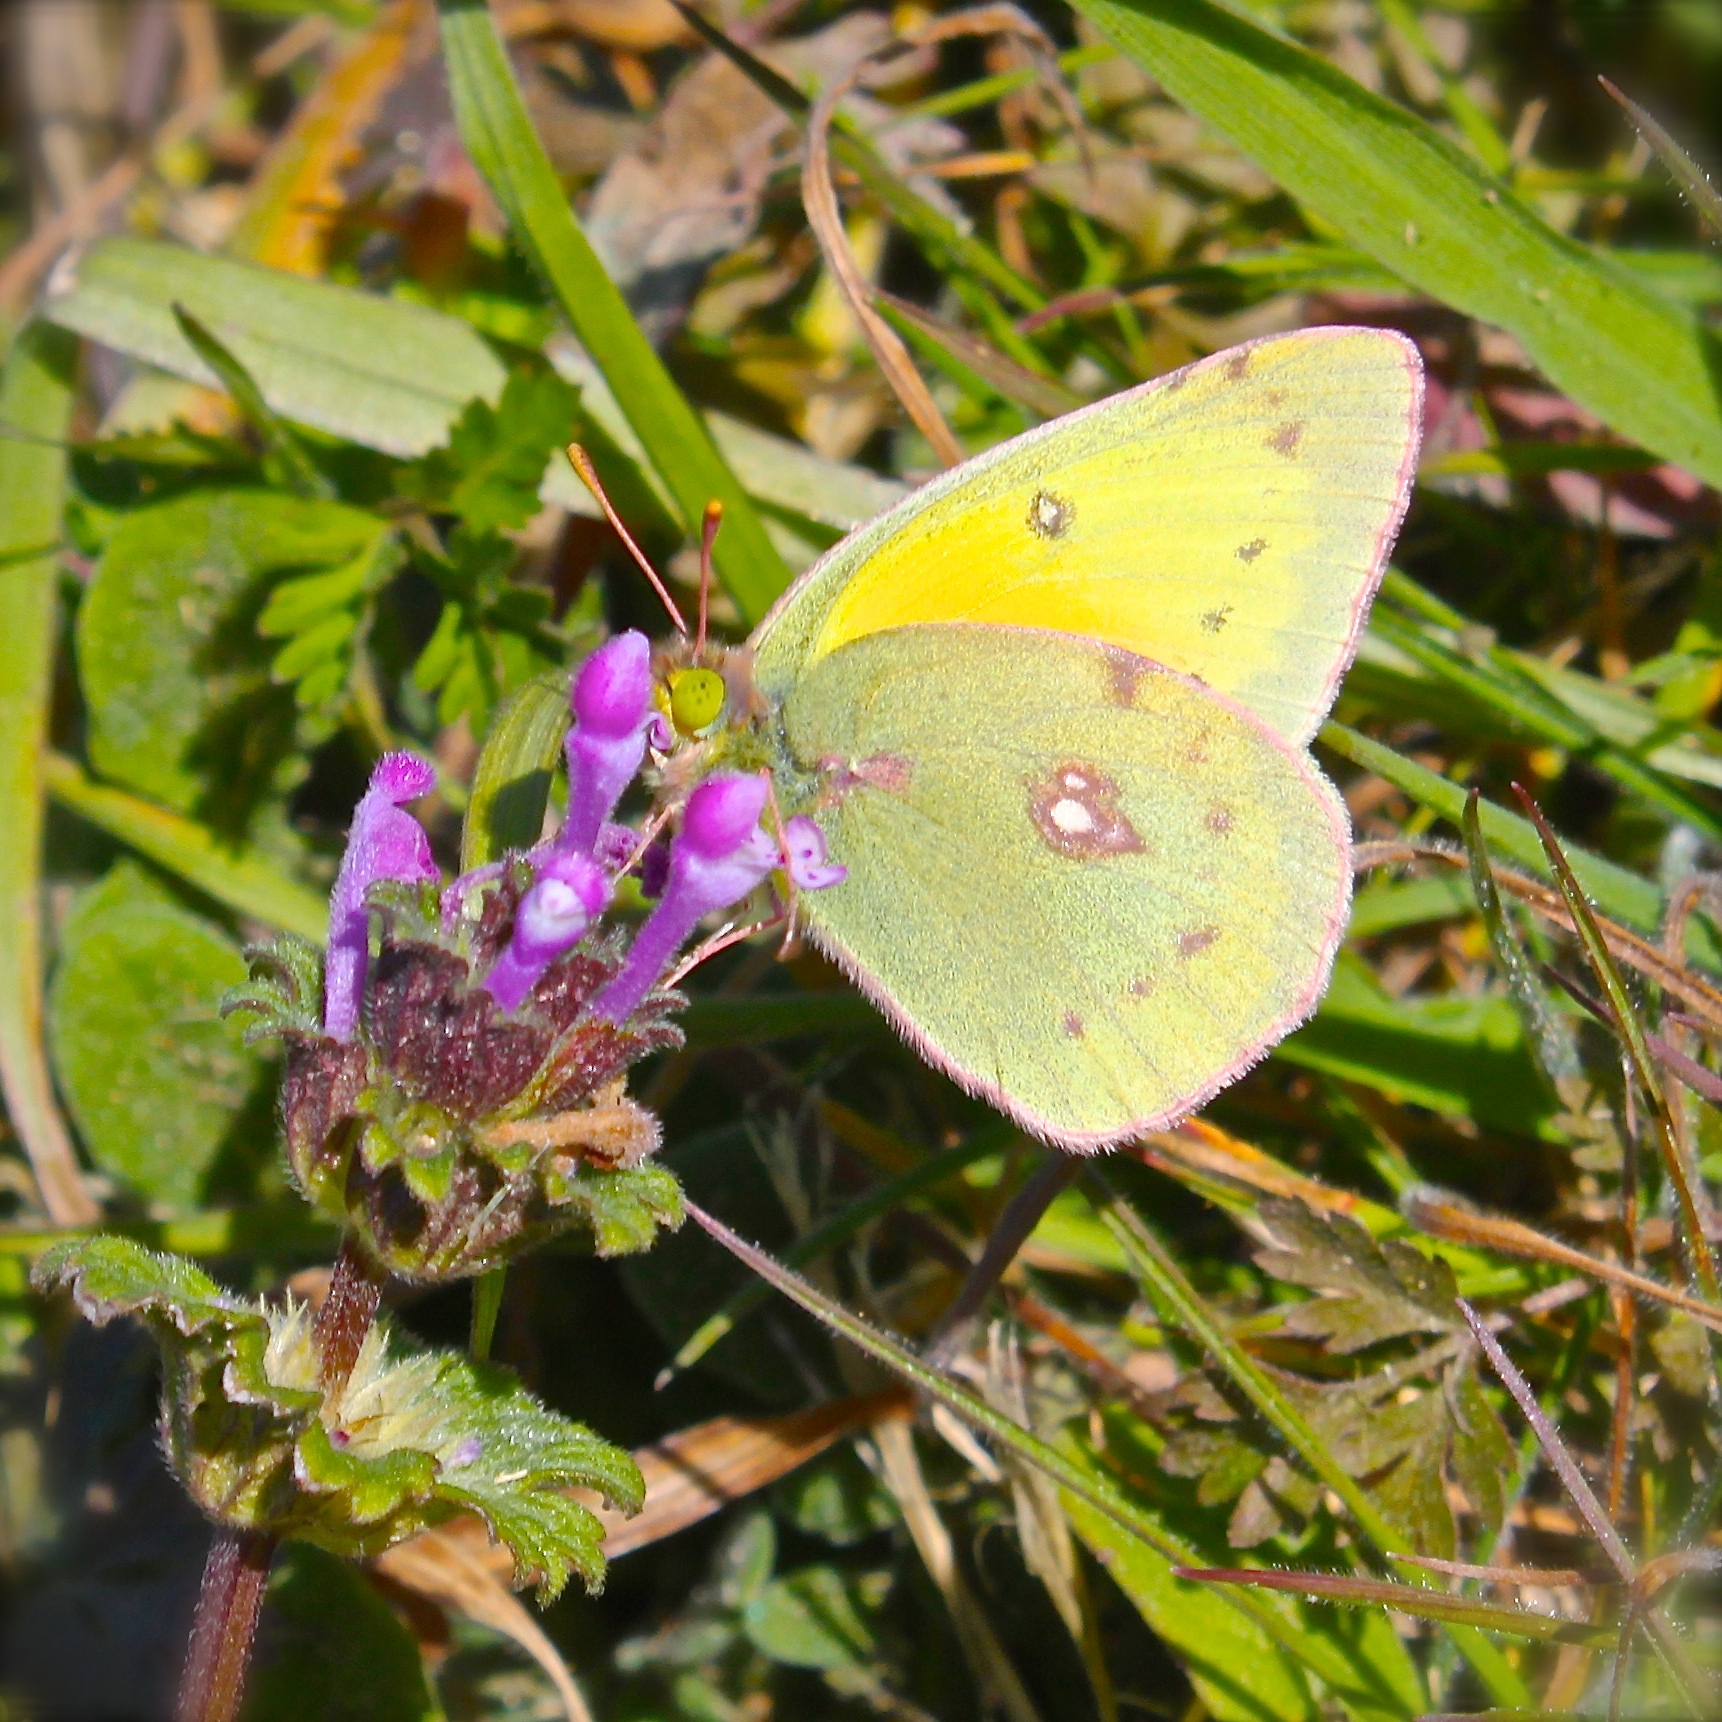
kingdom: Animalia
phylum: Arthropoda
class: Insecta
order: Lepidoptera
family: Pieridae
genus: Colias
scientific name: Colias eurytheme
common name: Alfalfa butterfly
